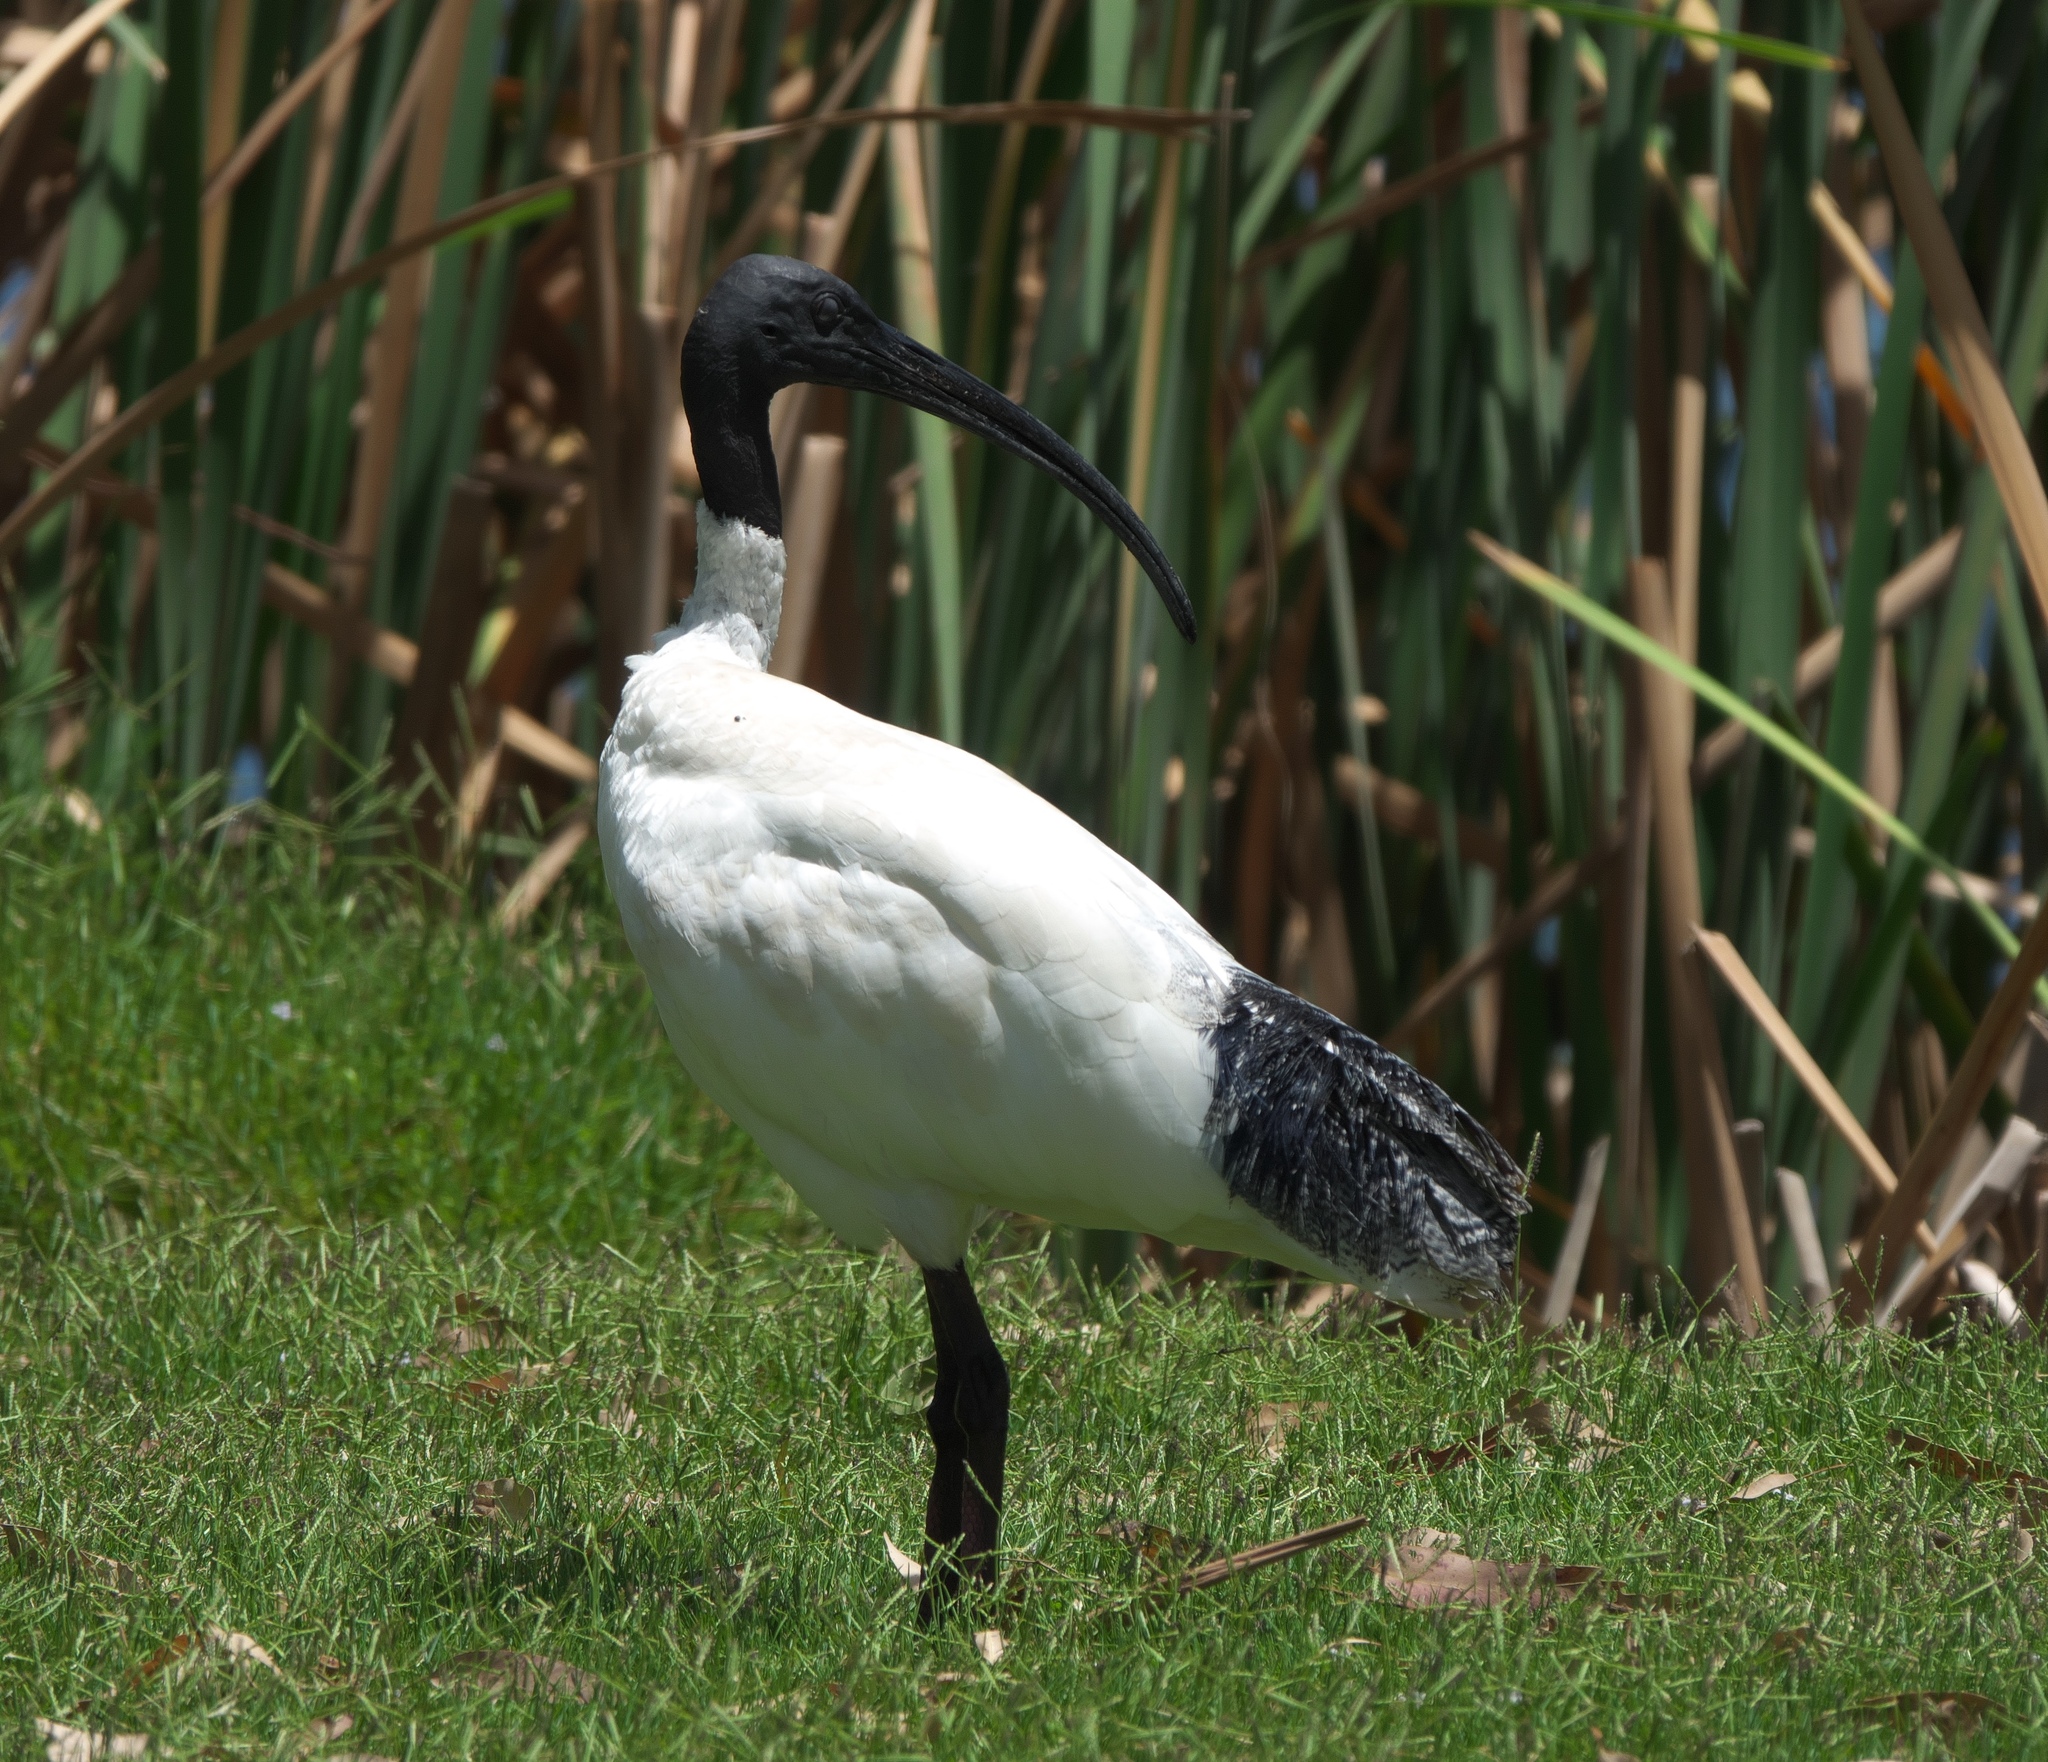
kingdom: Animalia
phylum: Chordata
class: Aves
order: Pelecaniformes
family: Threskiornithidae
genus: Threskiornis
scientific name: Threskiornis molucca
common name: Australian white ibis
